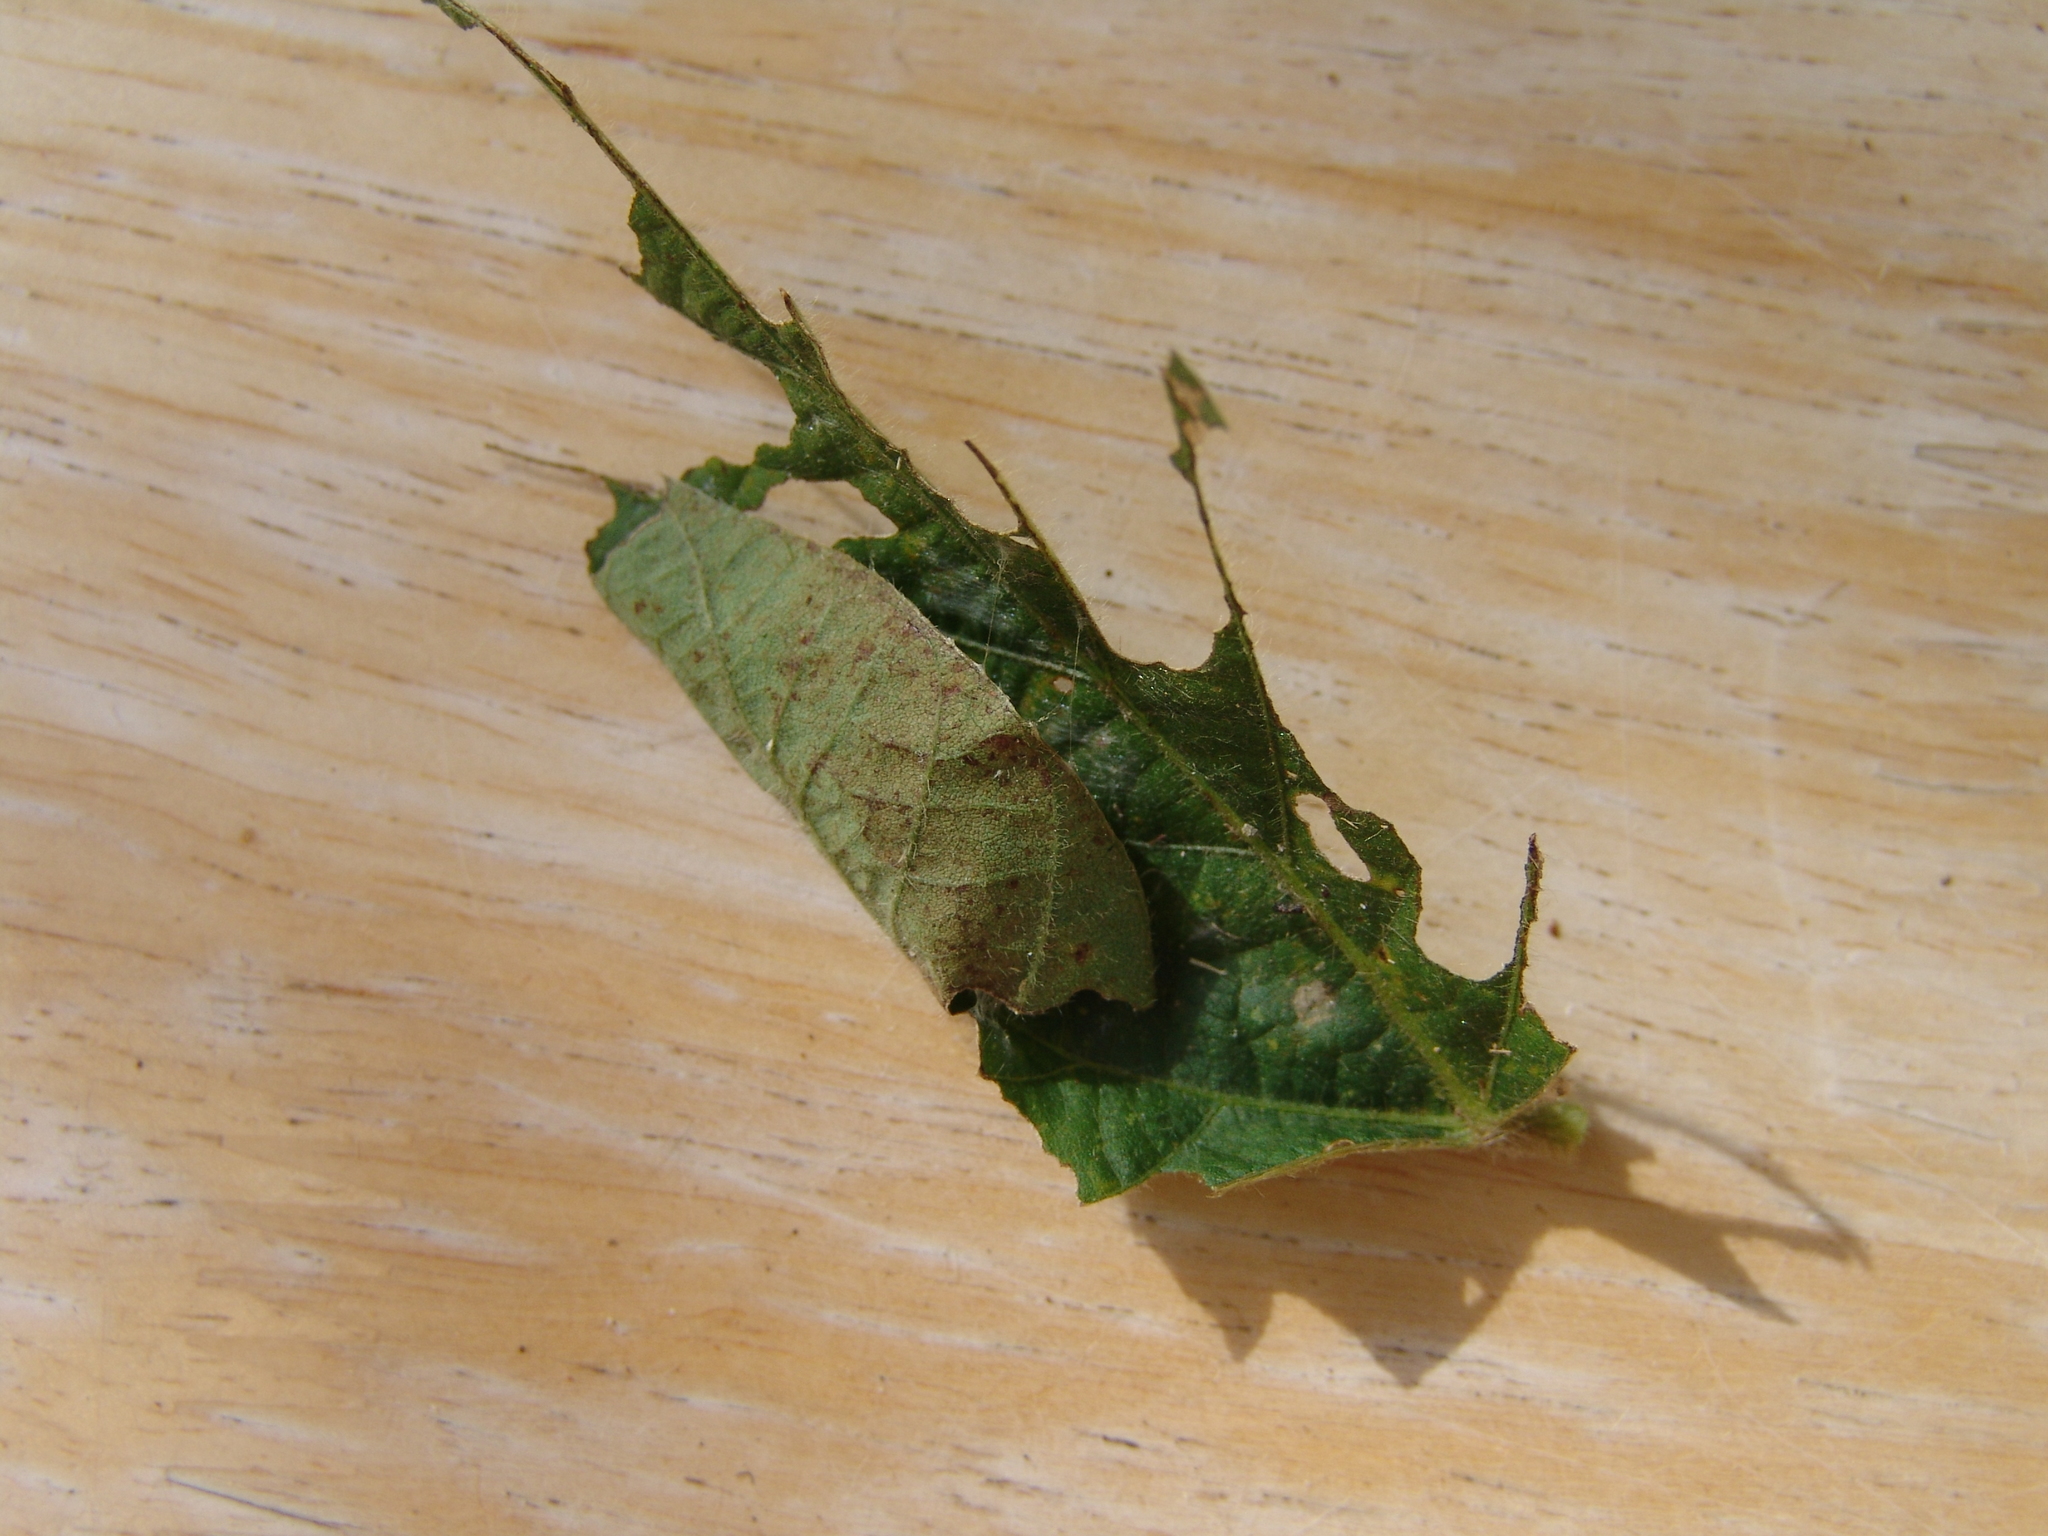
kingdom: Animalia
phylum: Arthropoda
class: Insecta
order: Lepidoptera
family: Hesperiidae
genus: Epargyreus
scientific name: Epargyreus clarus
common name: Silver-spotted skipper
